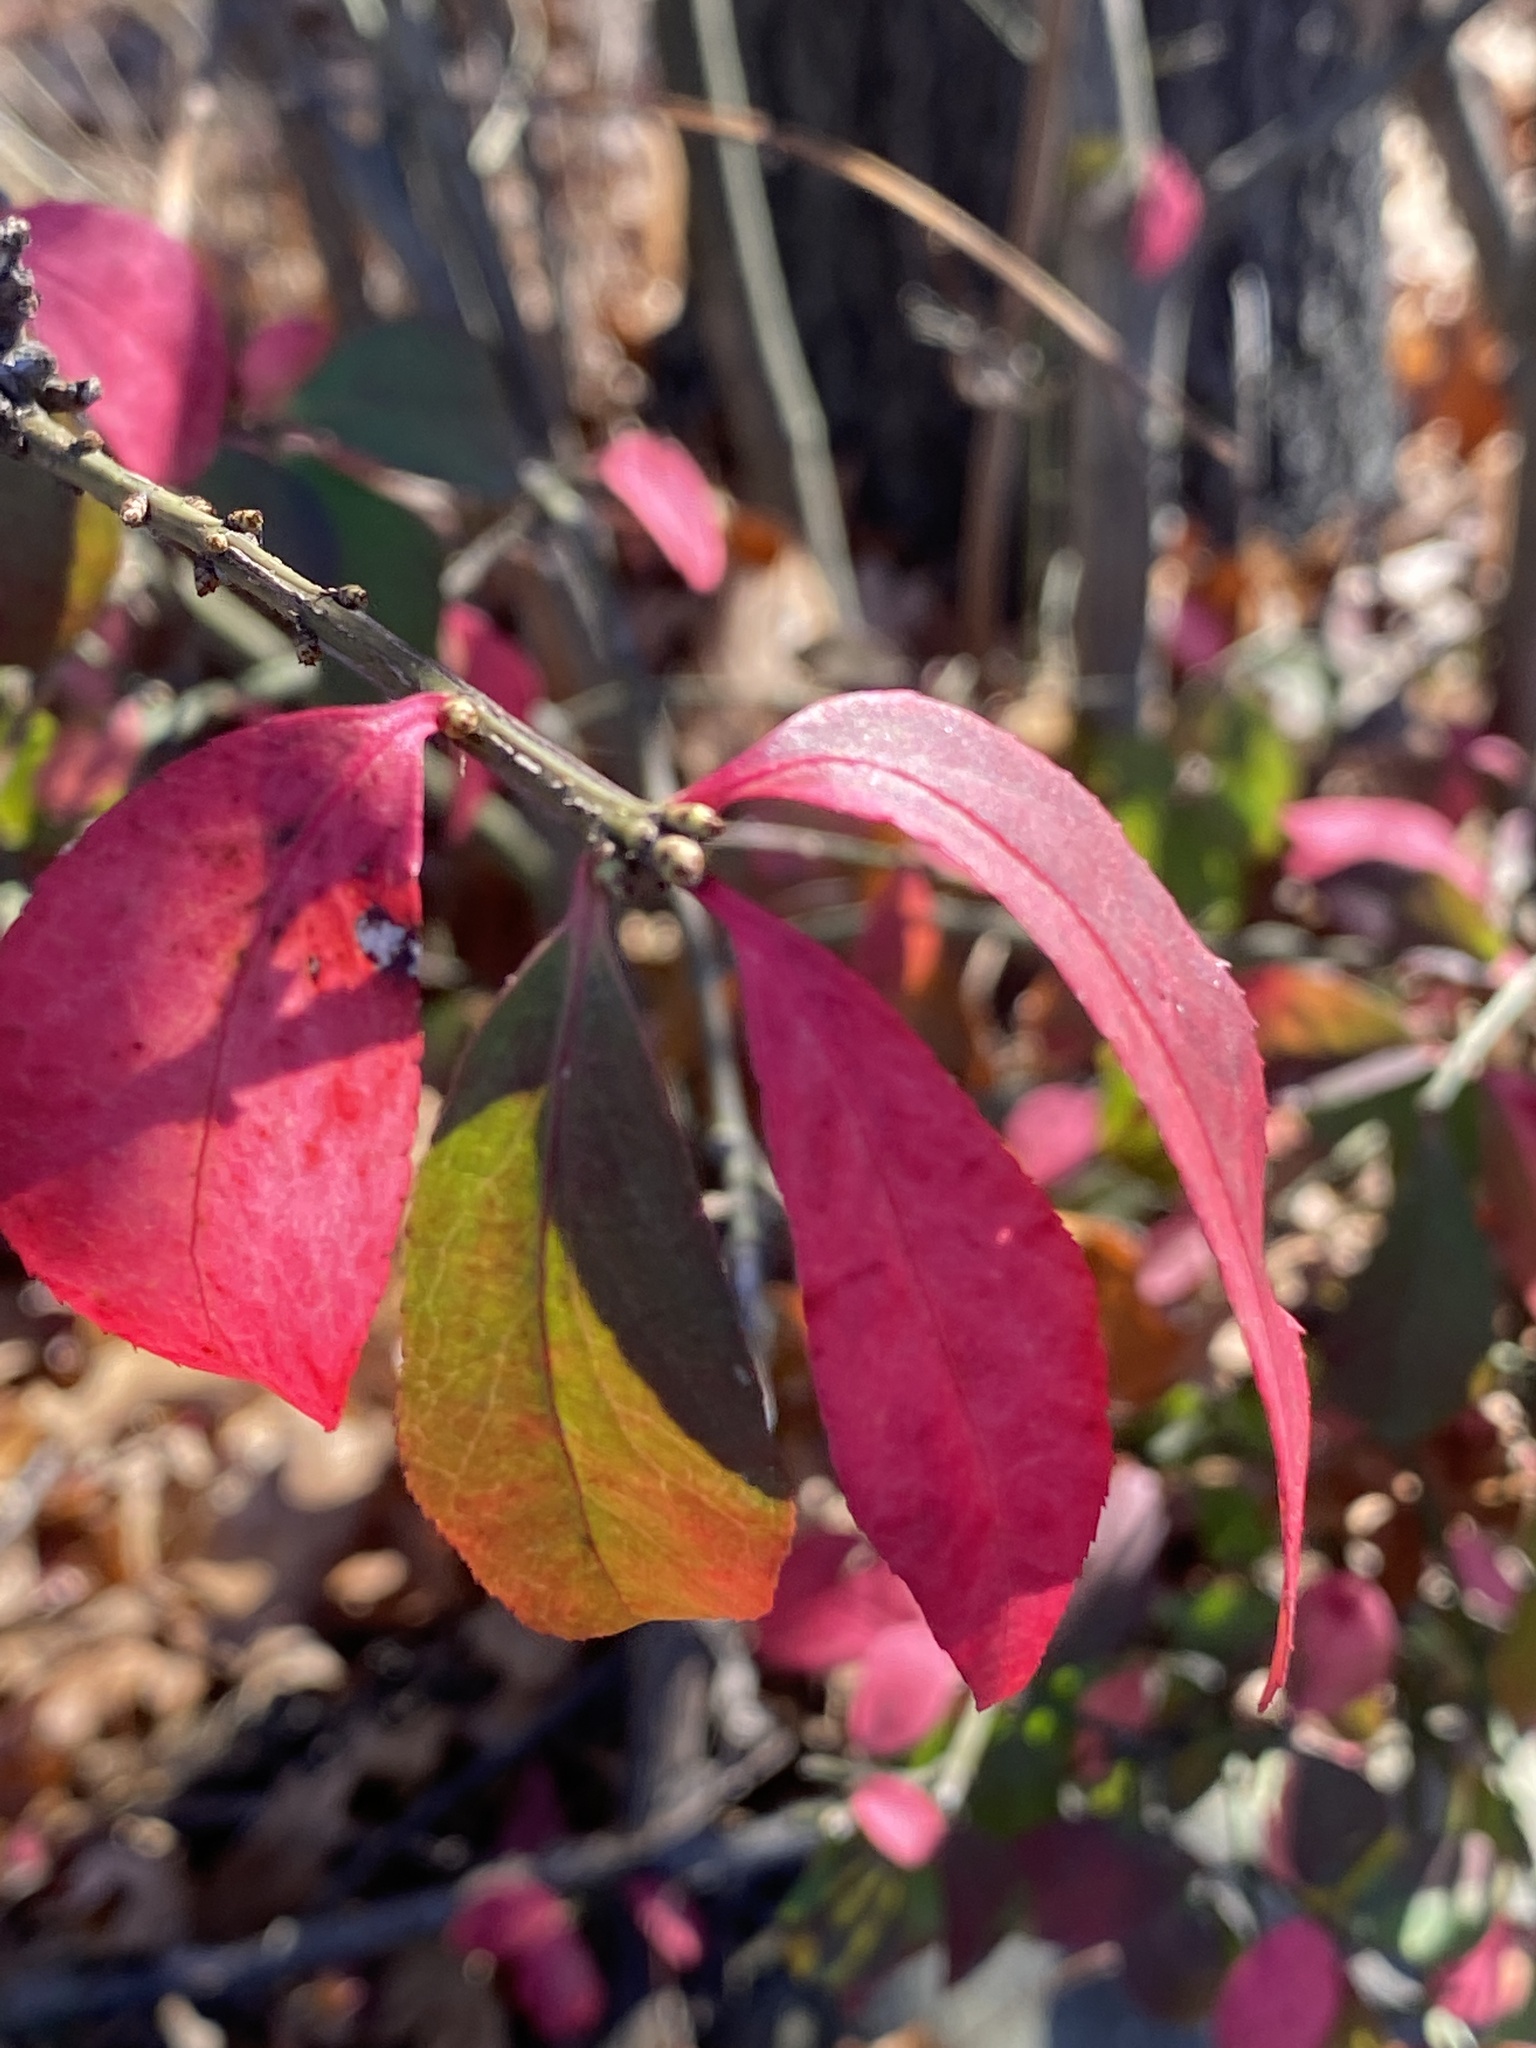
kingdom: Plantae
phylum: Tracheophyta
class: Magnoliopsida
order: Celastrales
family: Celastraceae
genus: Euonymus
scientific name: Euonymus alatus
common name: Winged euonymus
